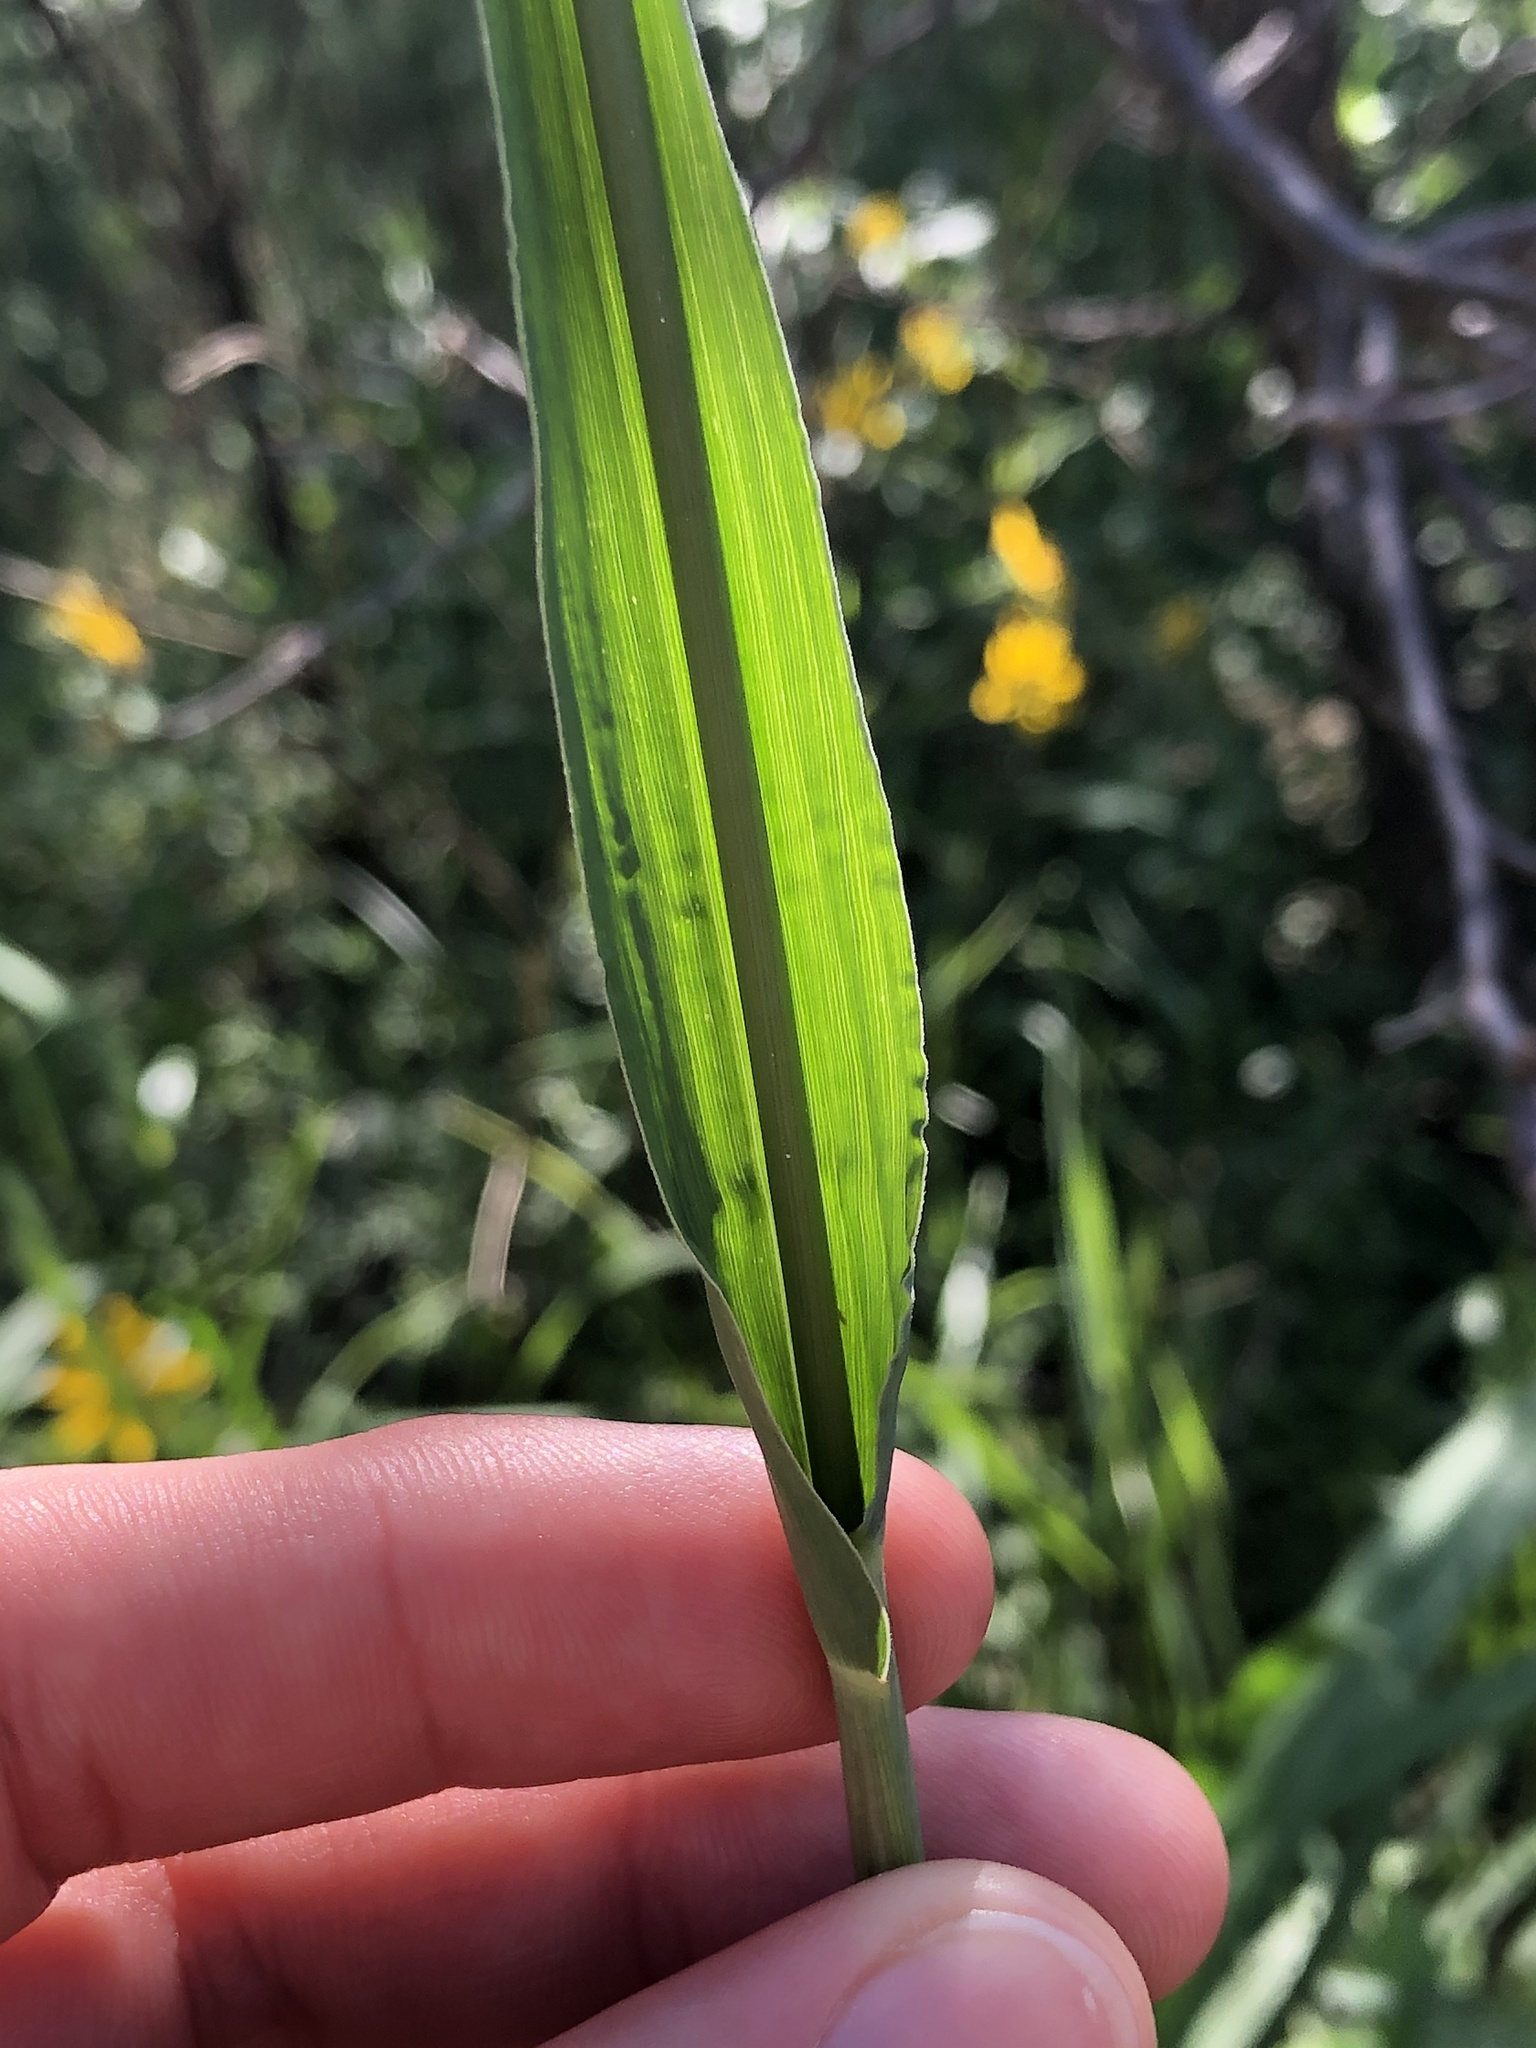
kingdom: Plantae
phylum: Tracheophyta
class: Liliopsida
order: Poales
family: Poaceae
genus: Tripsacum
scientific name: Tripsacum dactyloides
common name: Buffalo-grass
